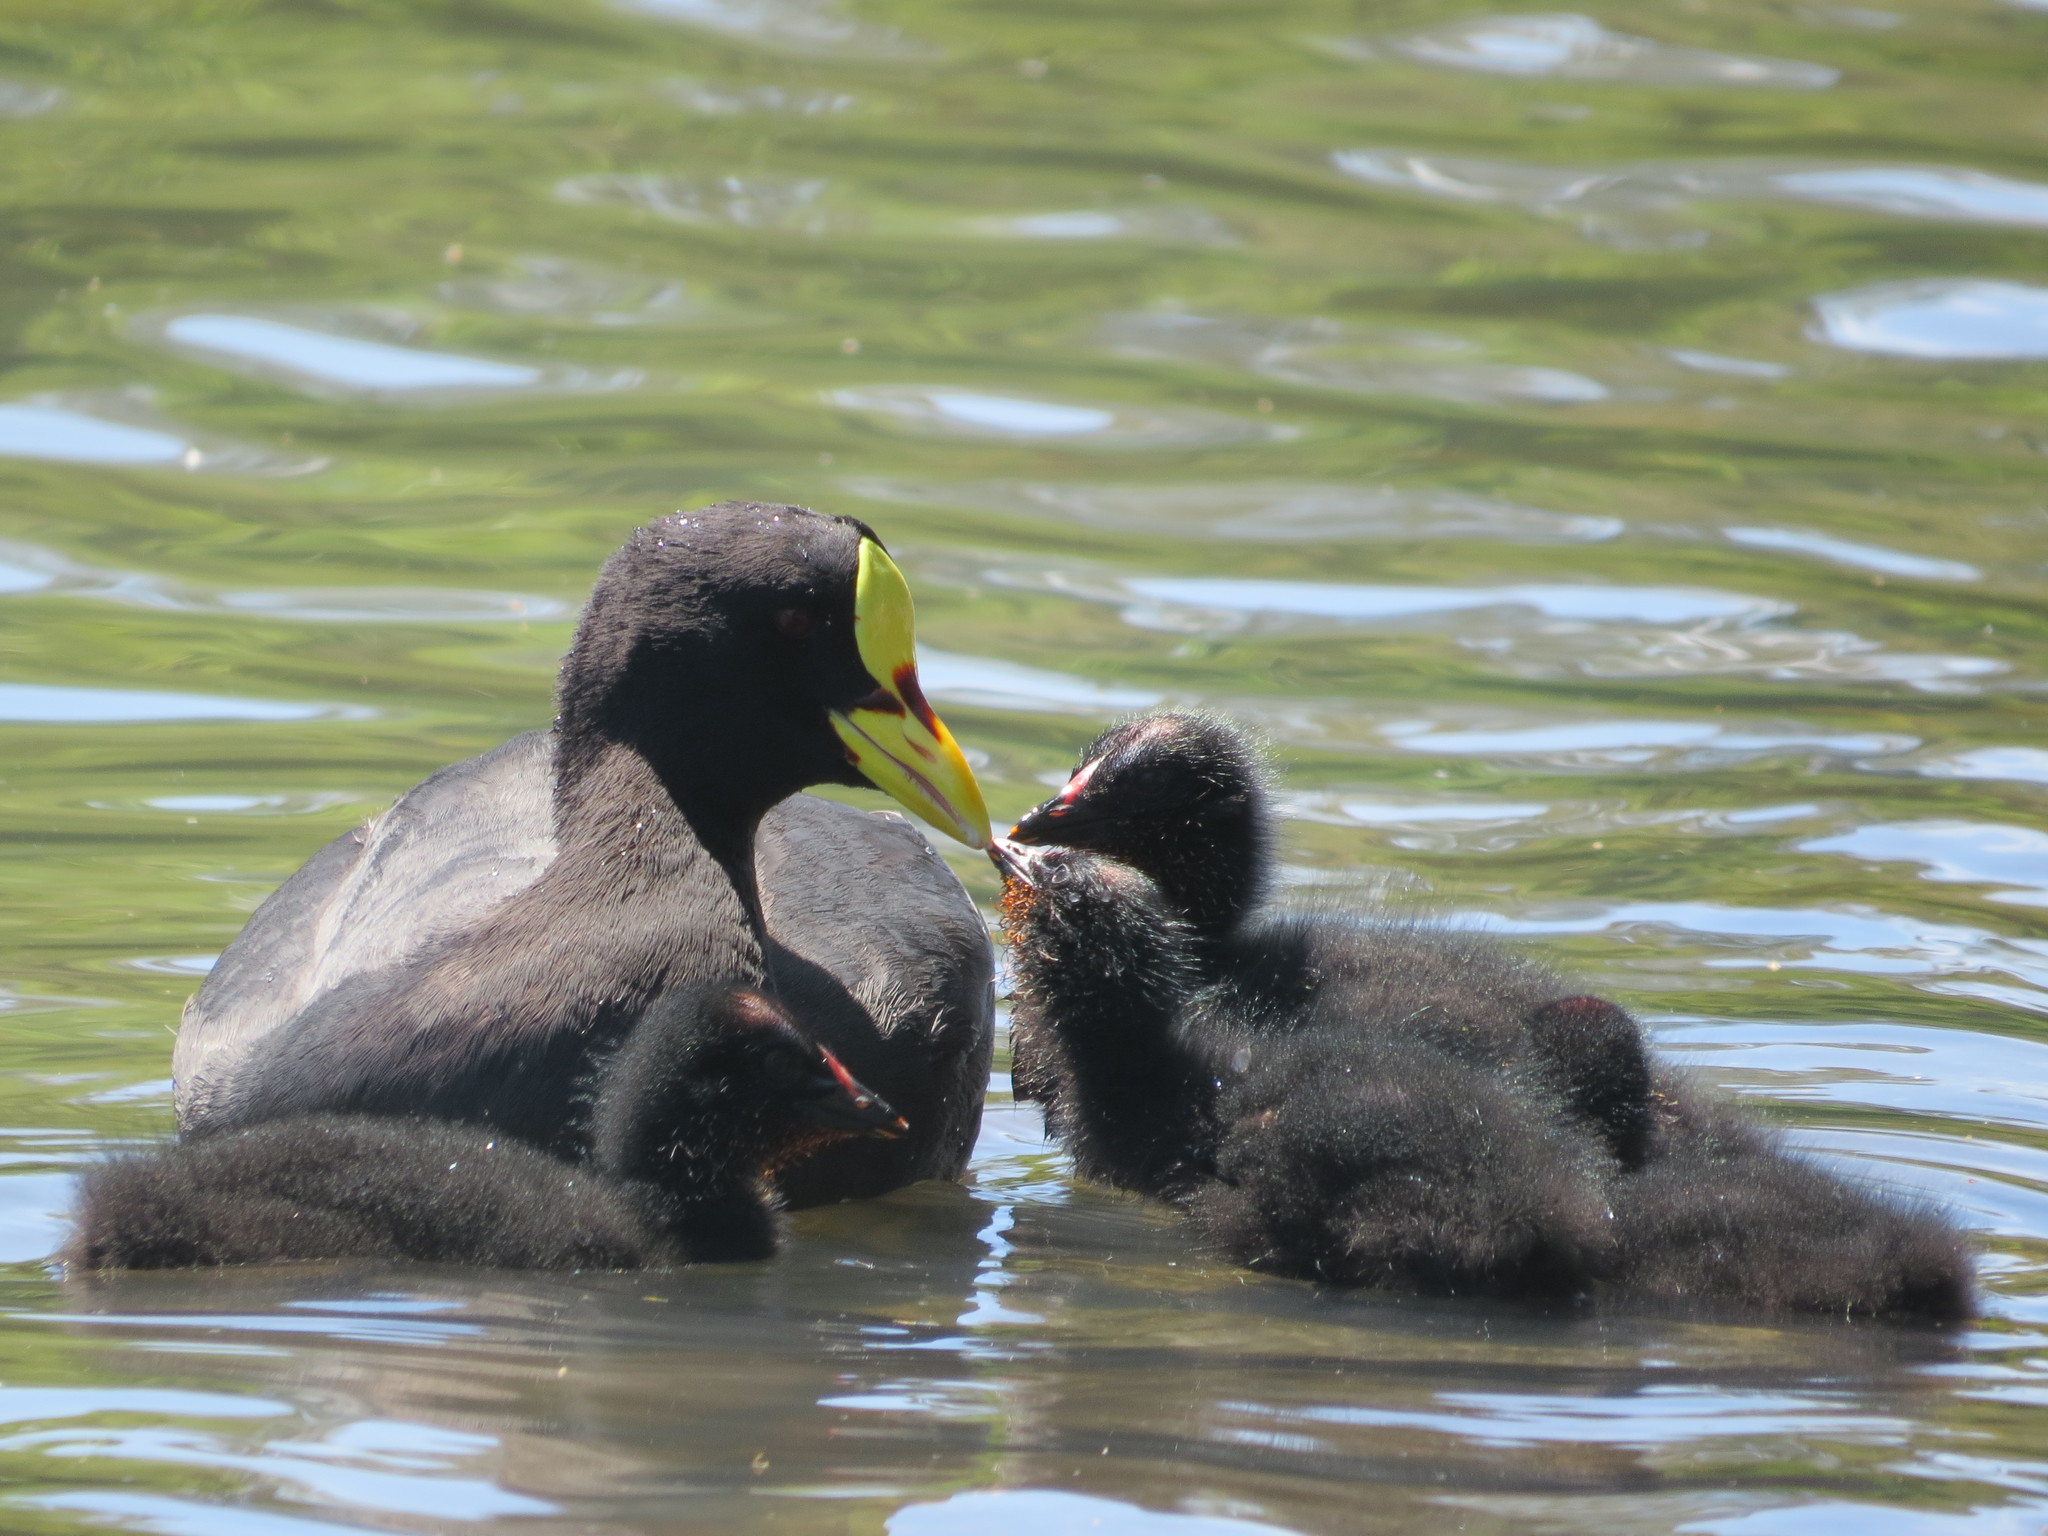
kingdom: Animalia
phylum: Chordata
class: Aves
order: Gruiformes
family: Rallidae
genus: Fulica
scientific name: Fulica armillata
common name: Red-gartered coot
